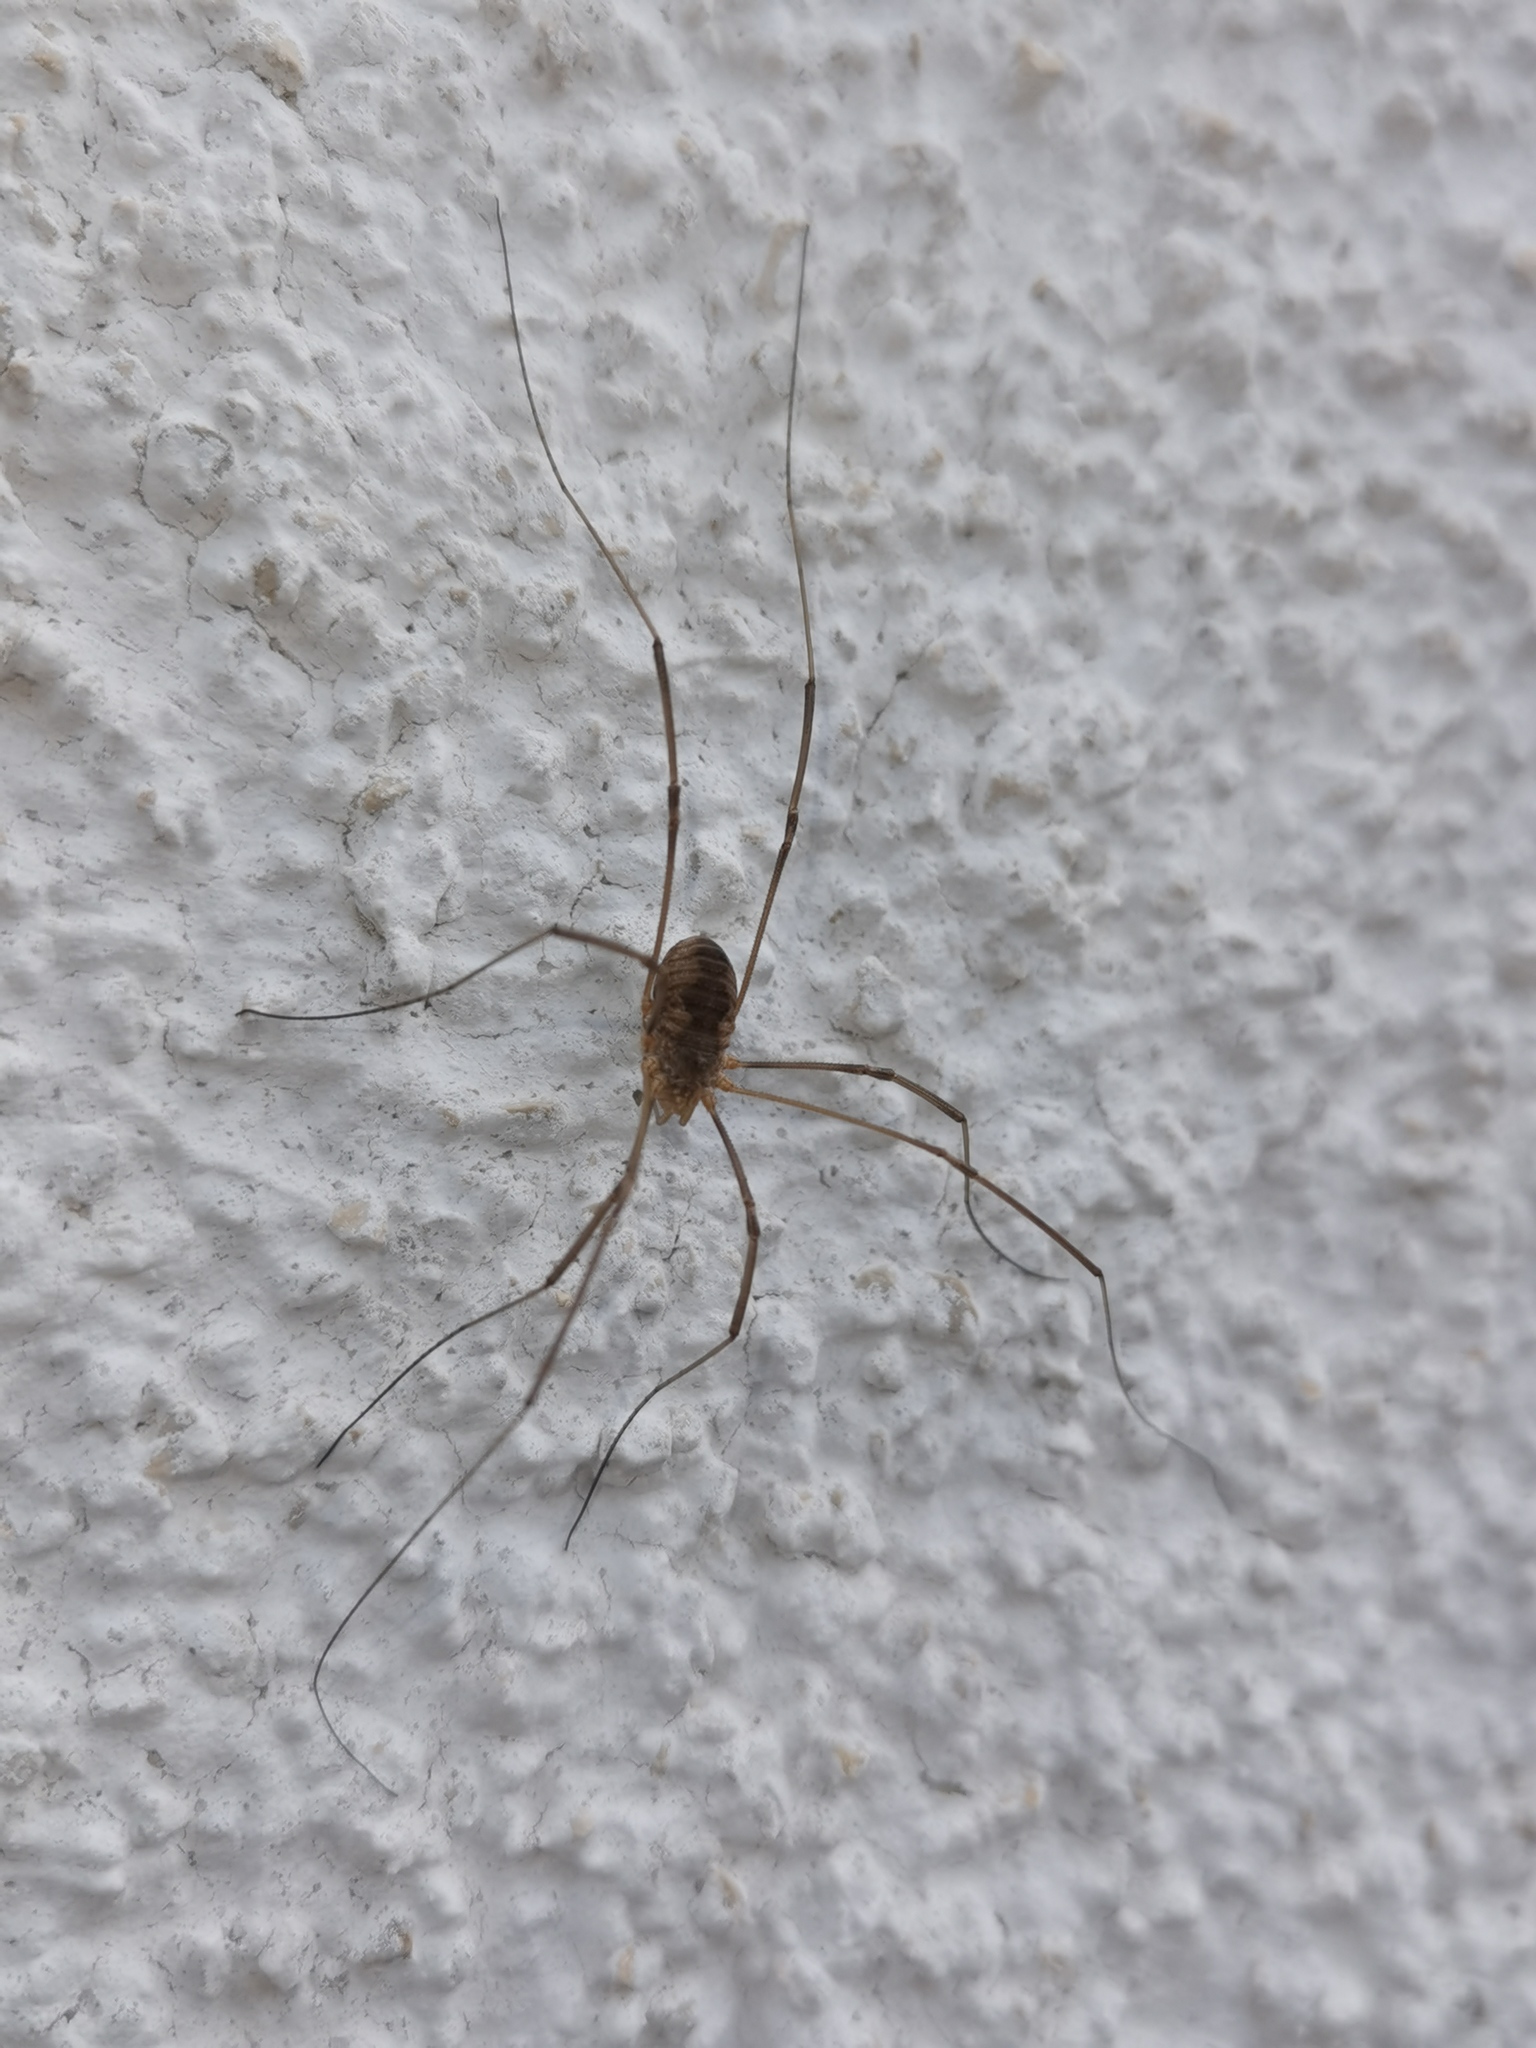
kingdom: Animalia
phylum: Arthropoda
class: Arachnida
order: Opiliones
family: Phalangiidae
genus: Phalangium
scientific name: Phalangium opilio
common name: Daddy longleg
